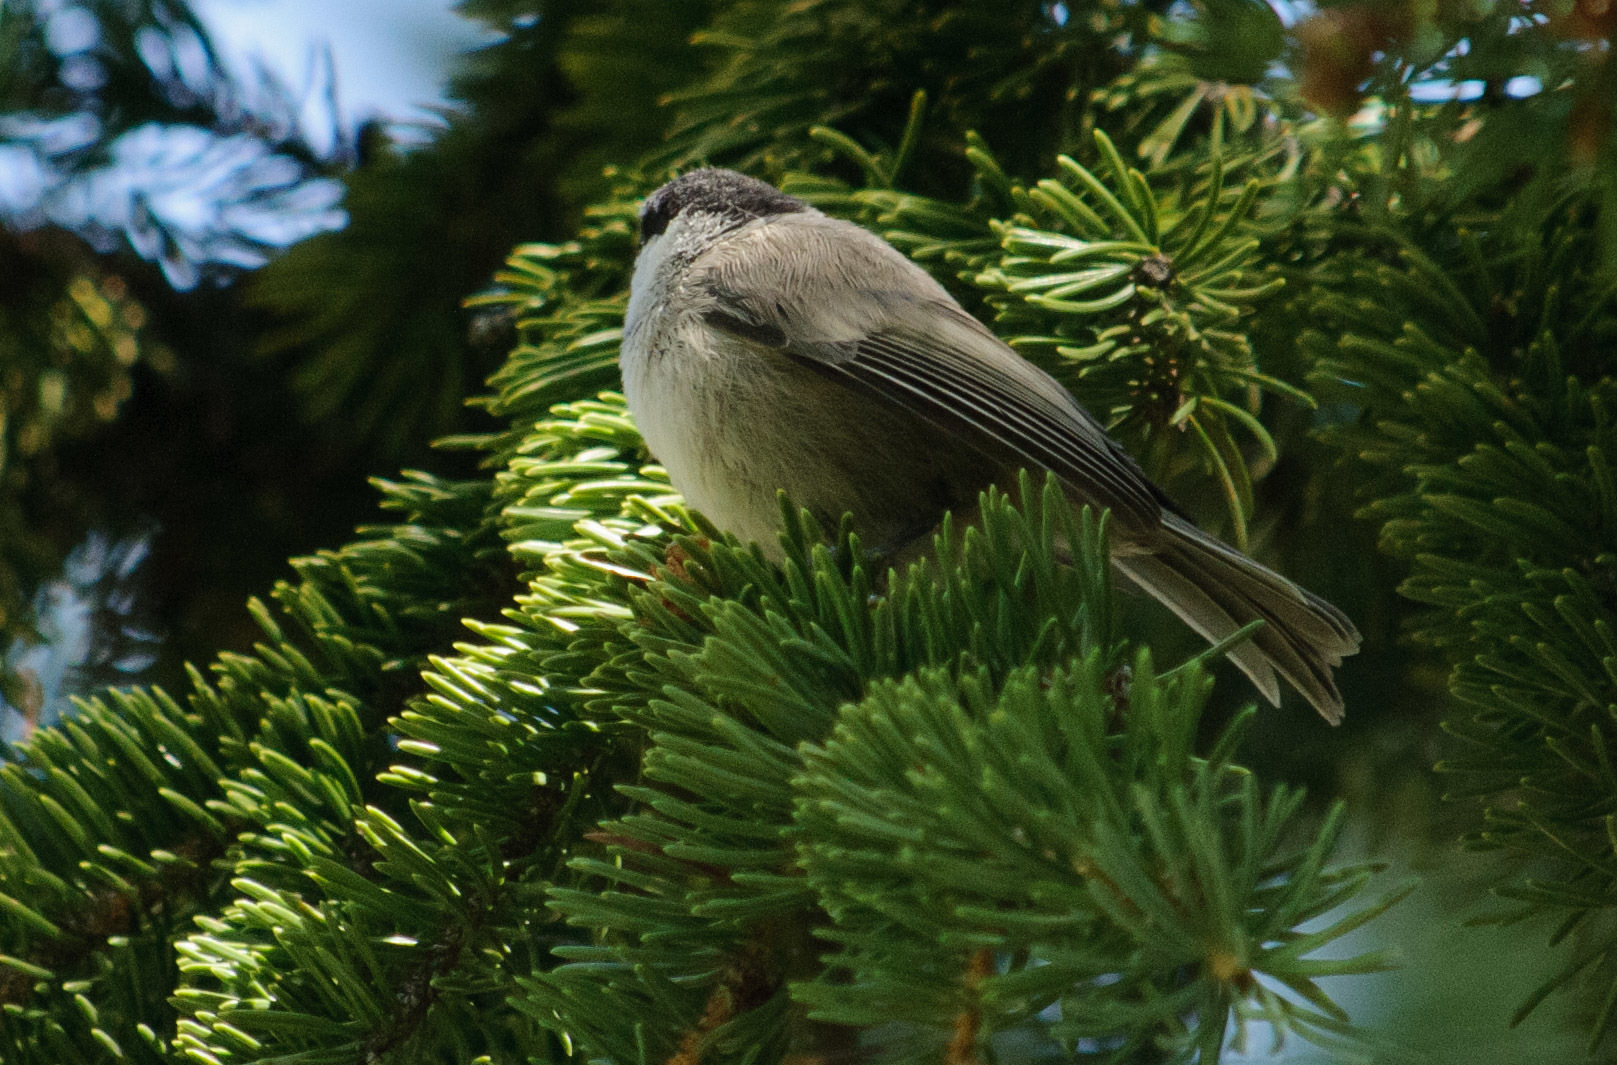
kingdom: Animalia
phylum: Chordata
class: Aves
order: Passeriformes
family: Paridae
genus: Poecile
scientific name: Poecile gambeli
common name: Mountain chickadee
